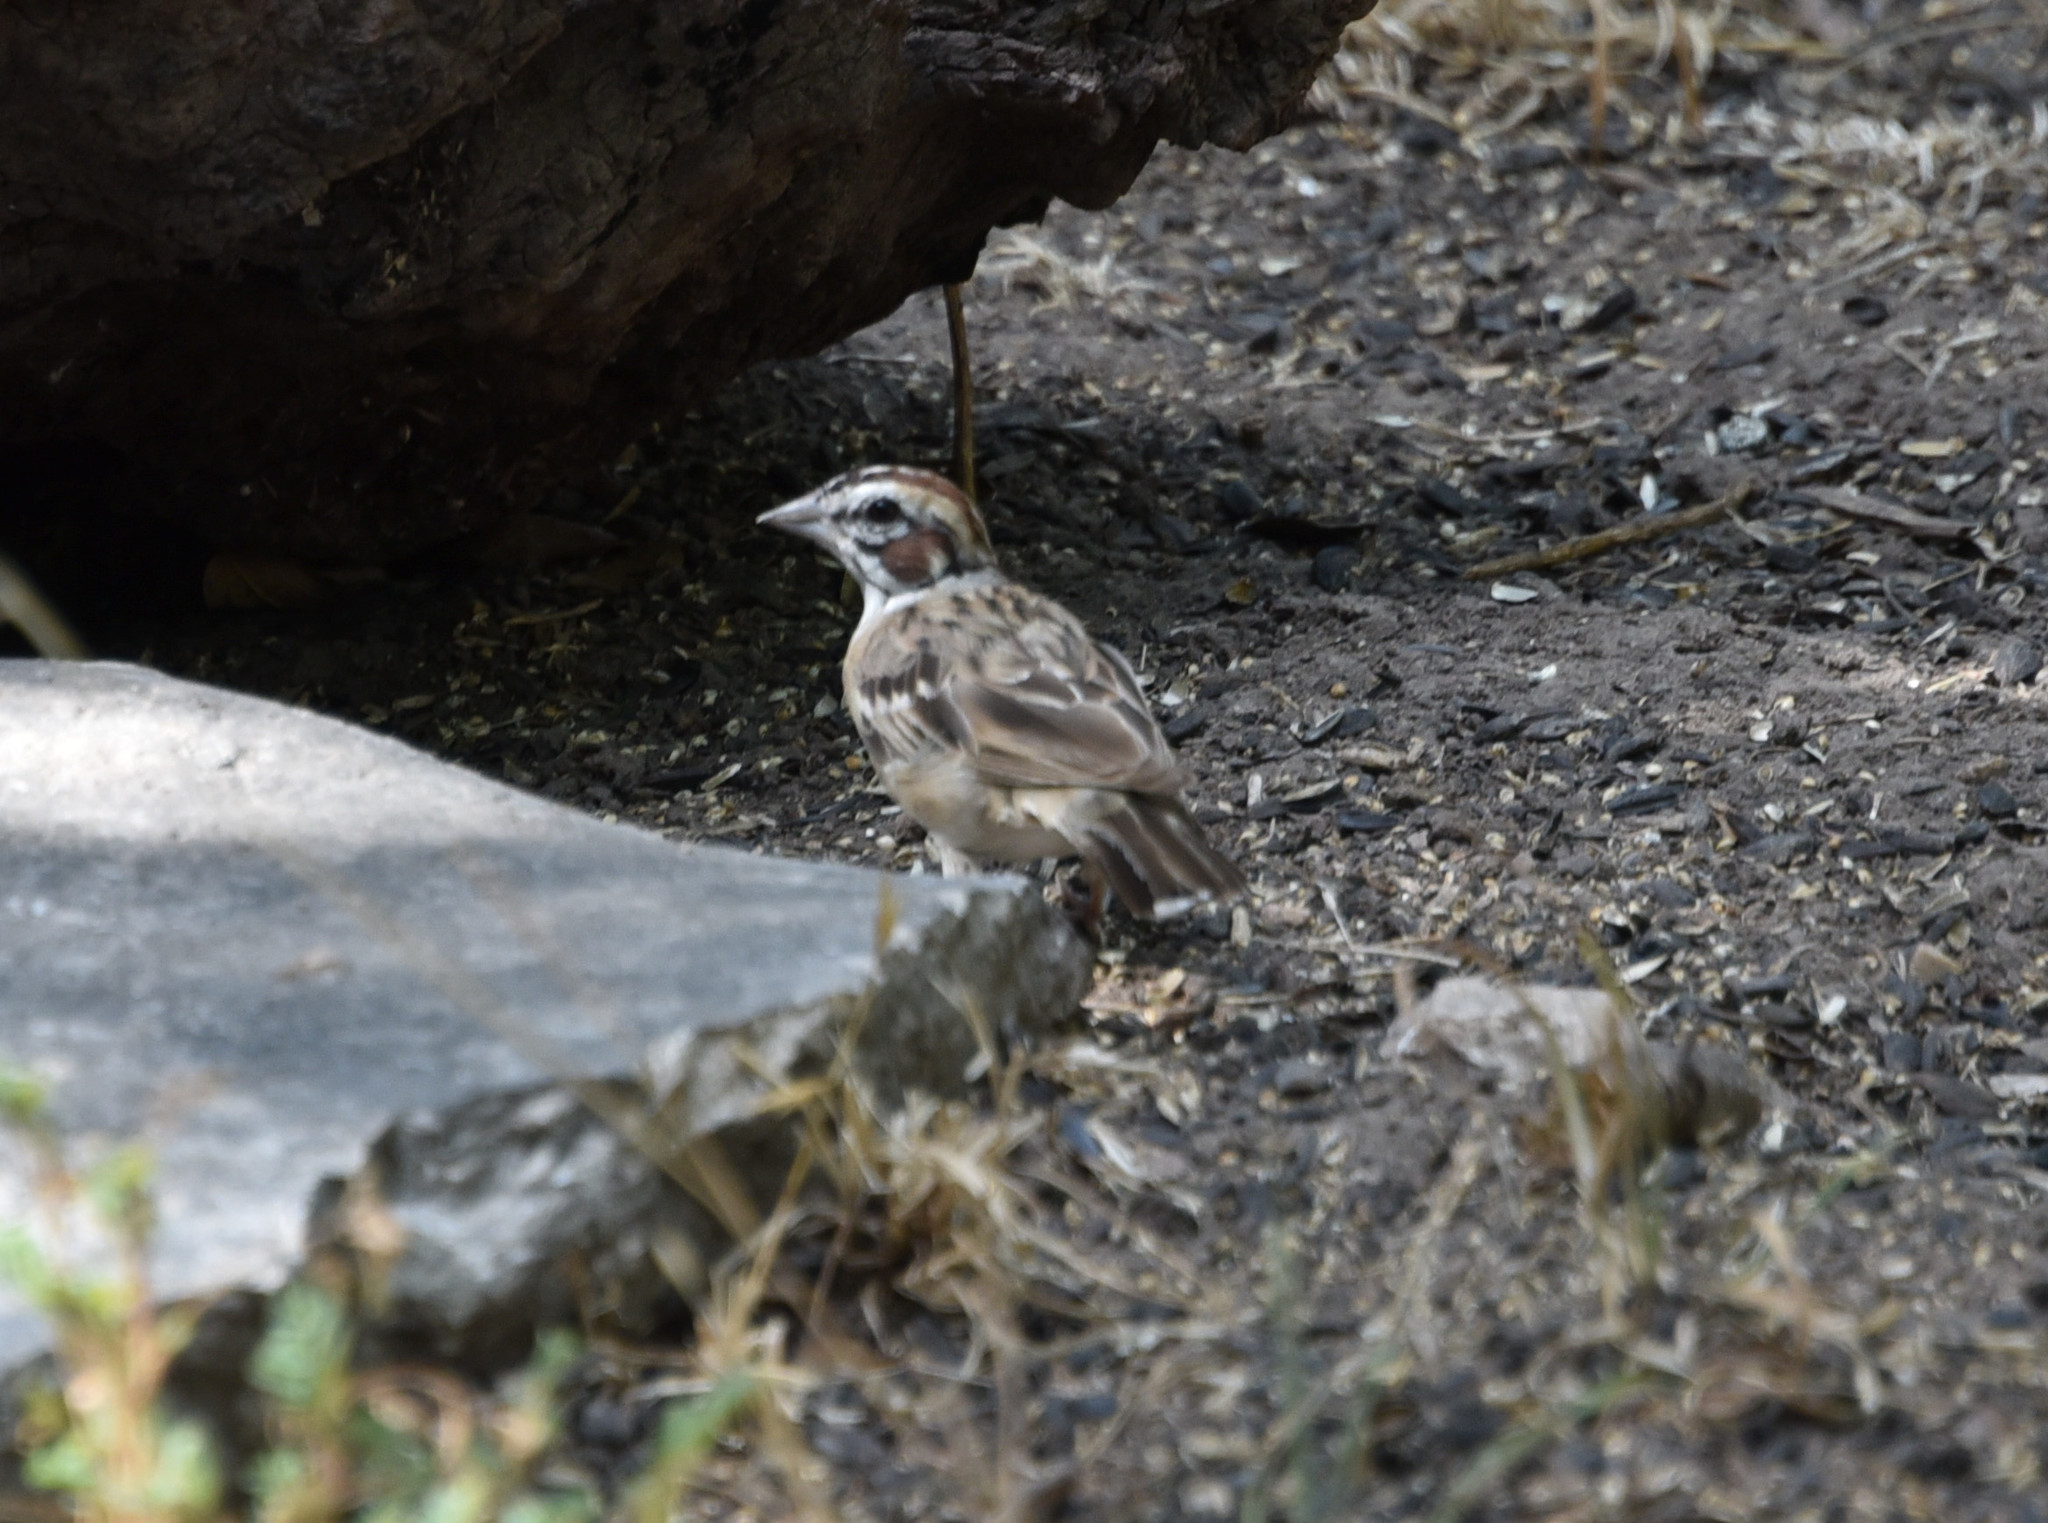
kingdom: Animalia
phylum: Chordata
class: Aves
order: Passeriformes
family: Passerellidae
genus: Chondestes
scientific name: Chondestes grammacus
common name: Lark sparrow
